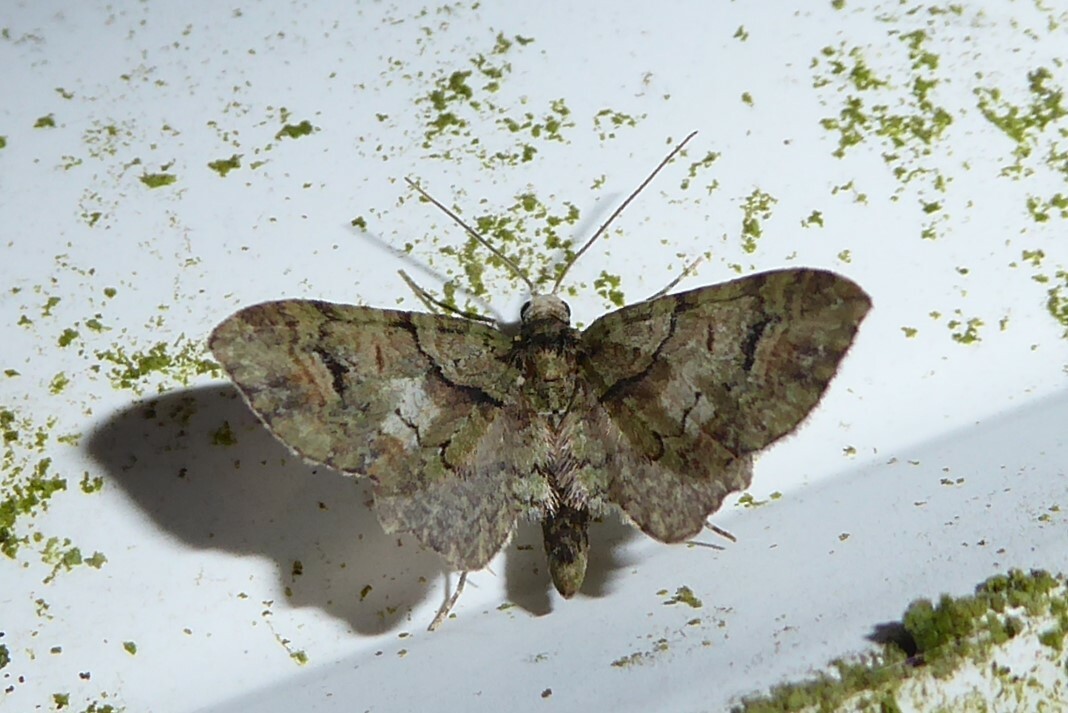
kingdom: Animalia
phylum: Arthropoda
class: Insecta
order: Lepidoptera
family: Geometridae
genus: Idaea
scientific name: Idaea mutanda
